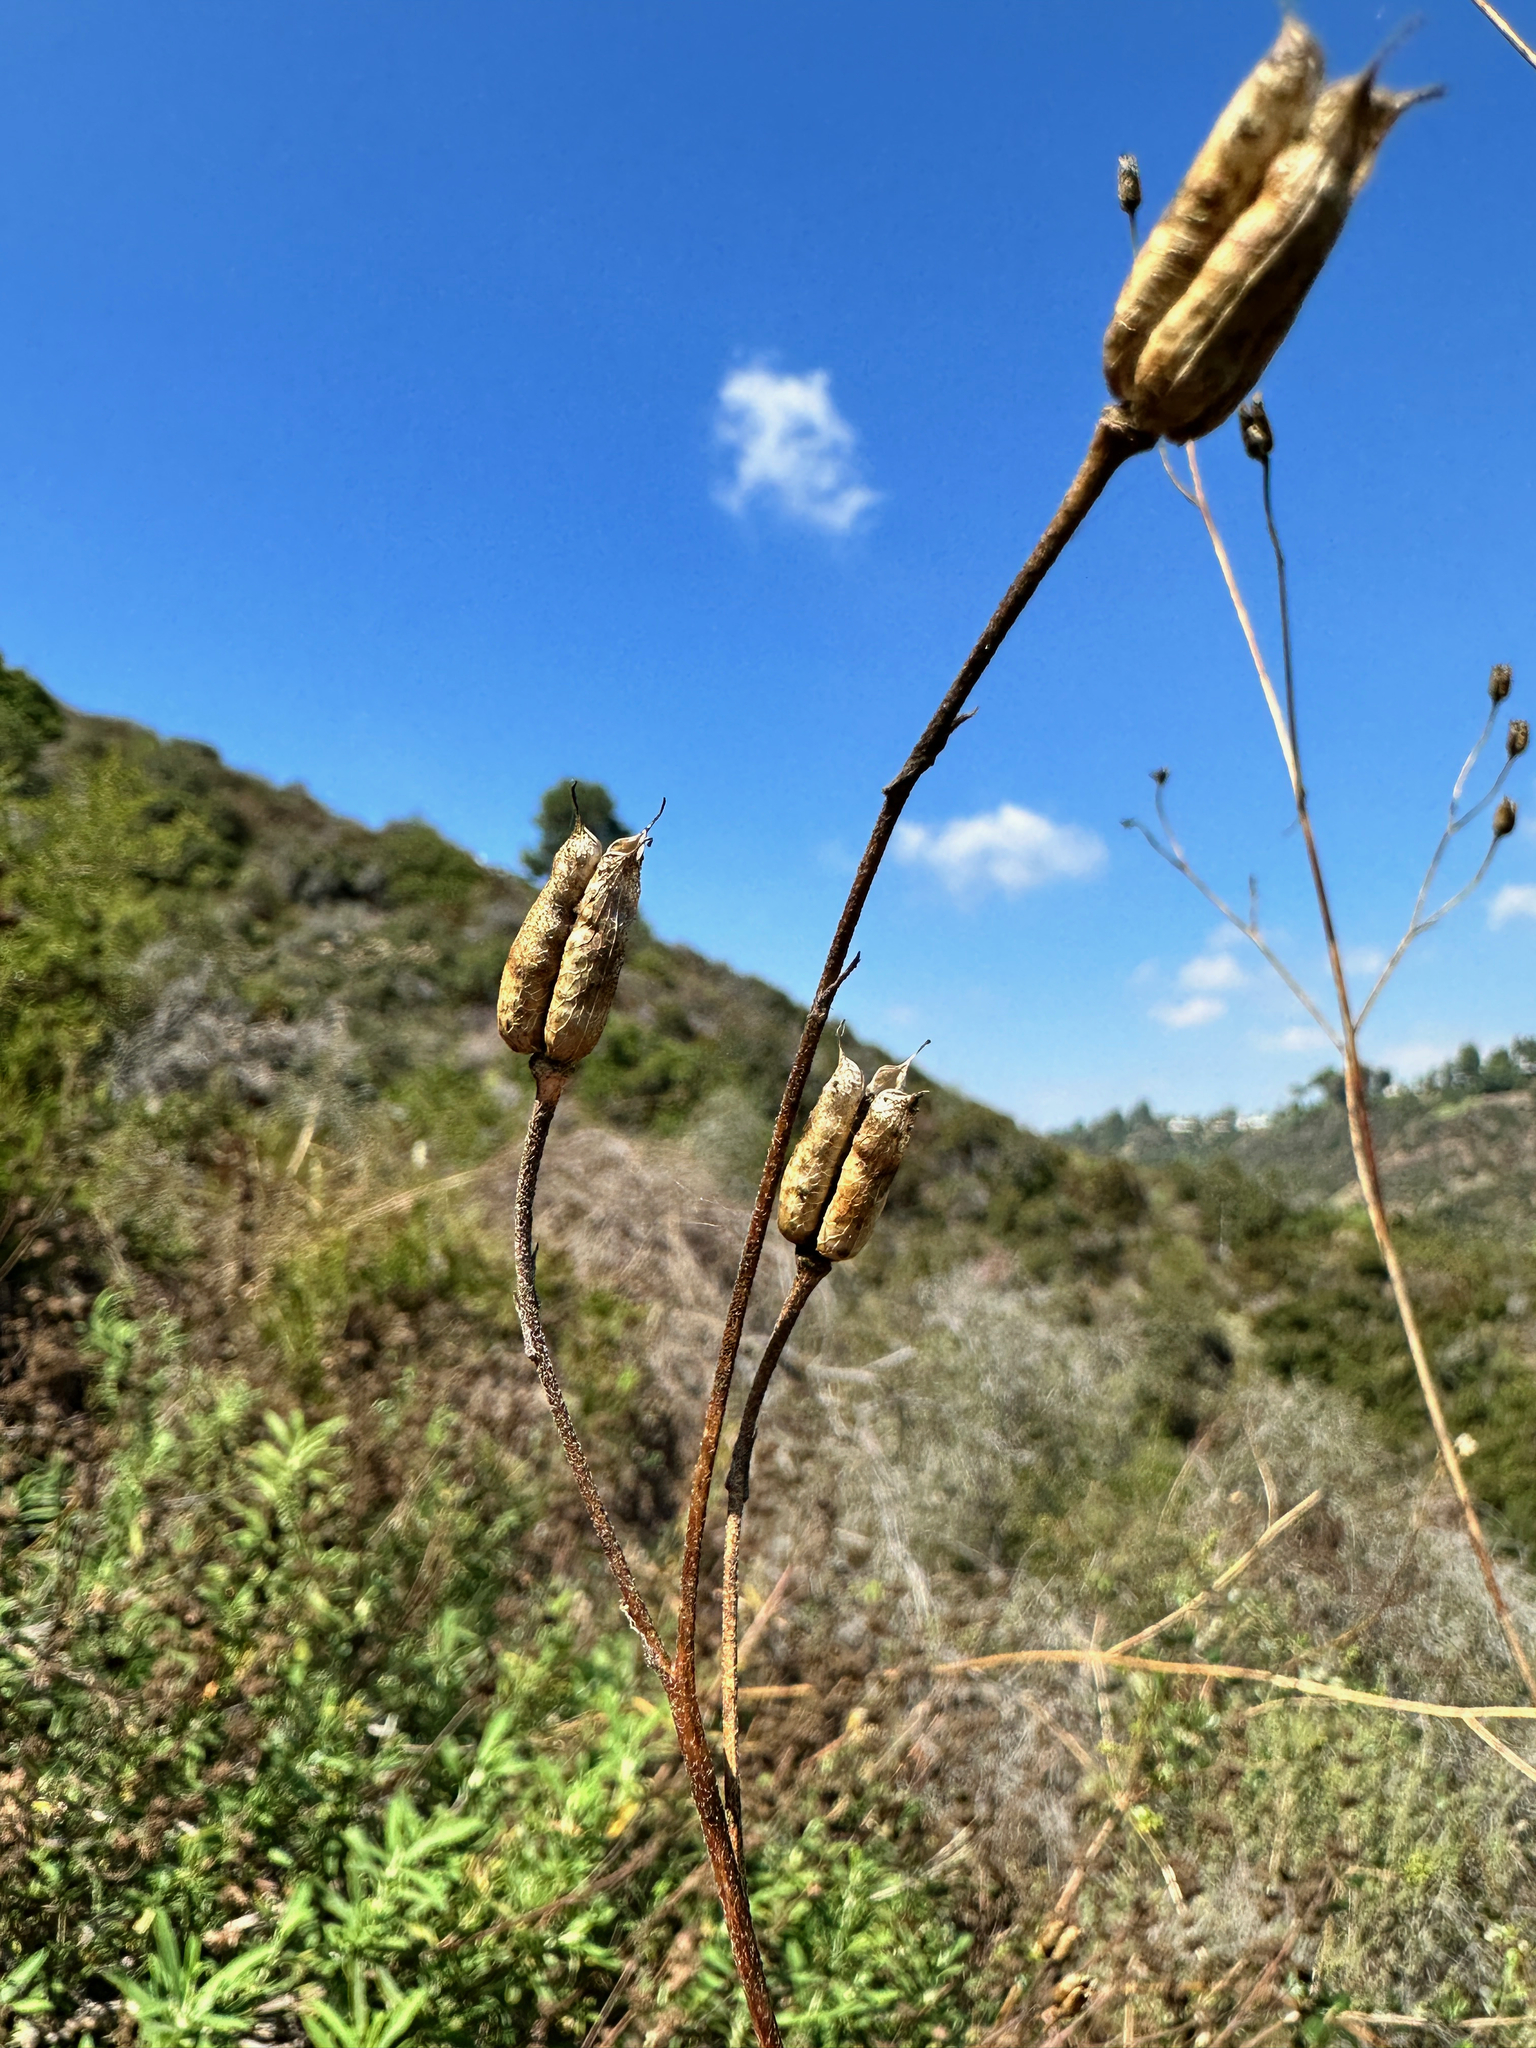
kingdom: Plantae
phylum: Tracheophyta
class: Magnoliopsida
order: Ranunculales
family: Ranunculaceae
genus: Delphinium
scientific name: Delphinium cardinale
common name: Scarlet larkspur
